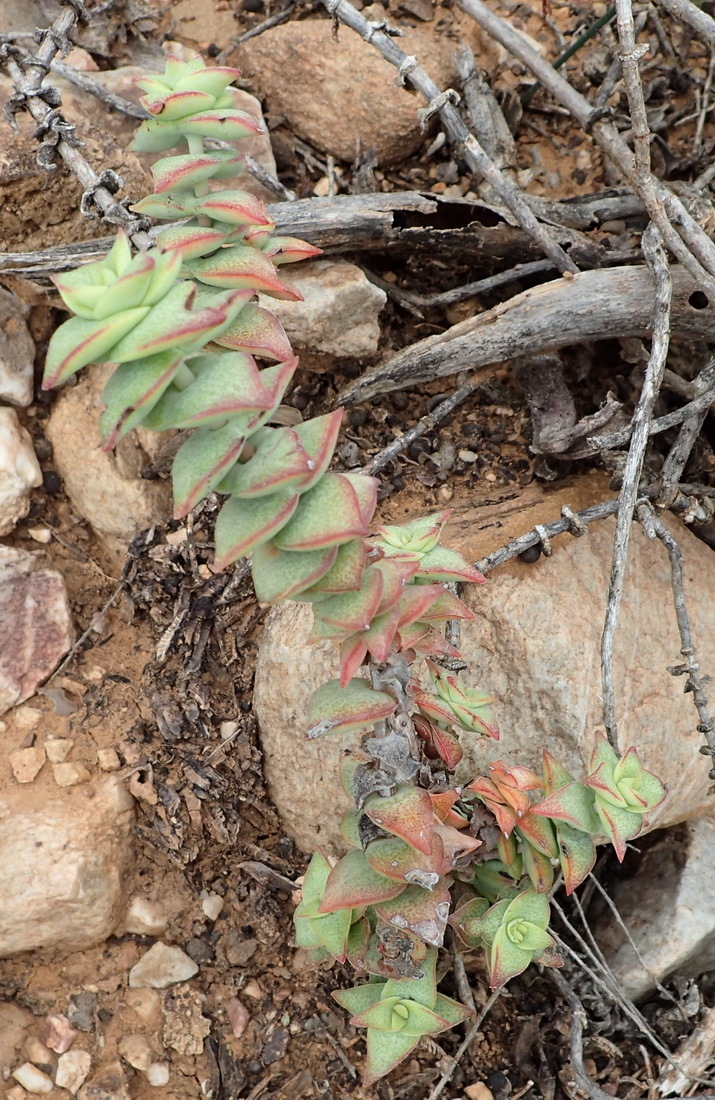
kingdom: Plantae
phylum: Tracheophyta
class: Magnoliopsida
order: Saxifragales
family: Crassulaceae
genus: Crassula
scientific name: Crassula perforata
